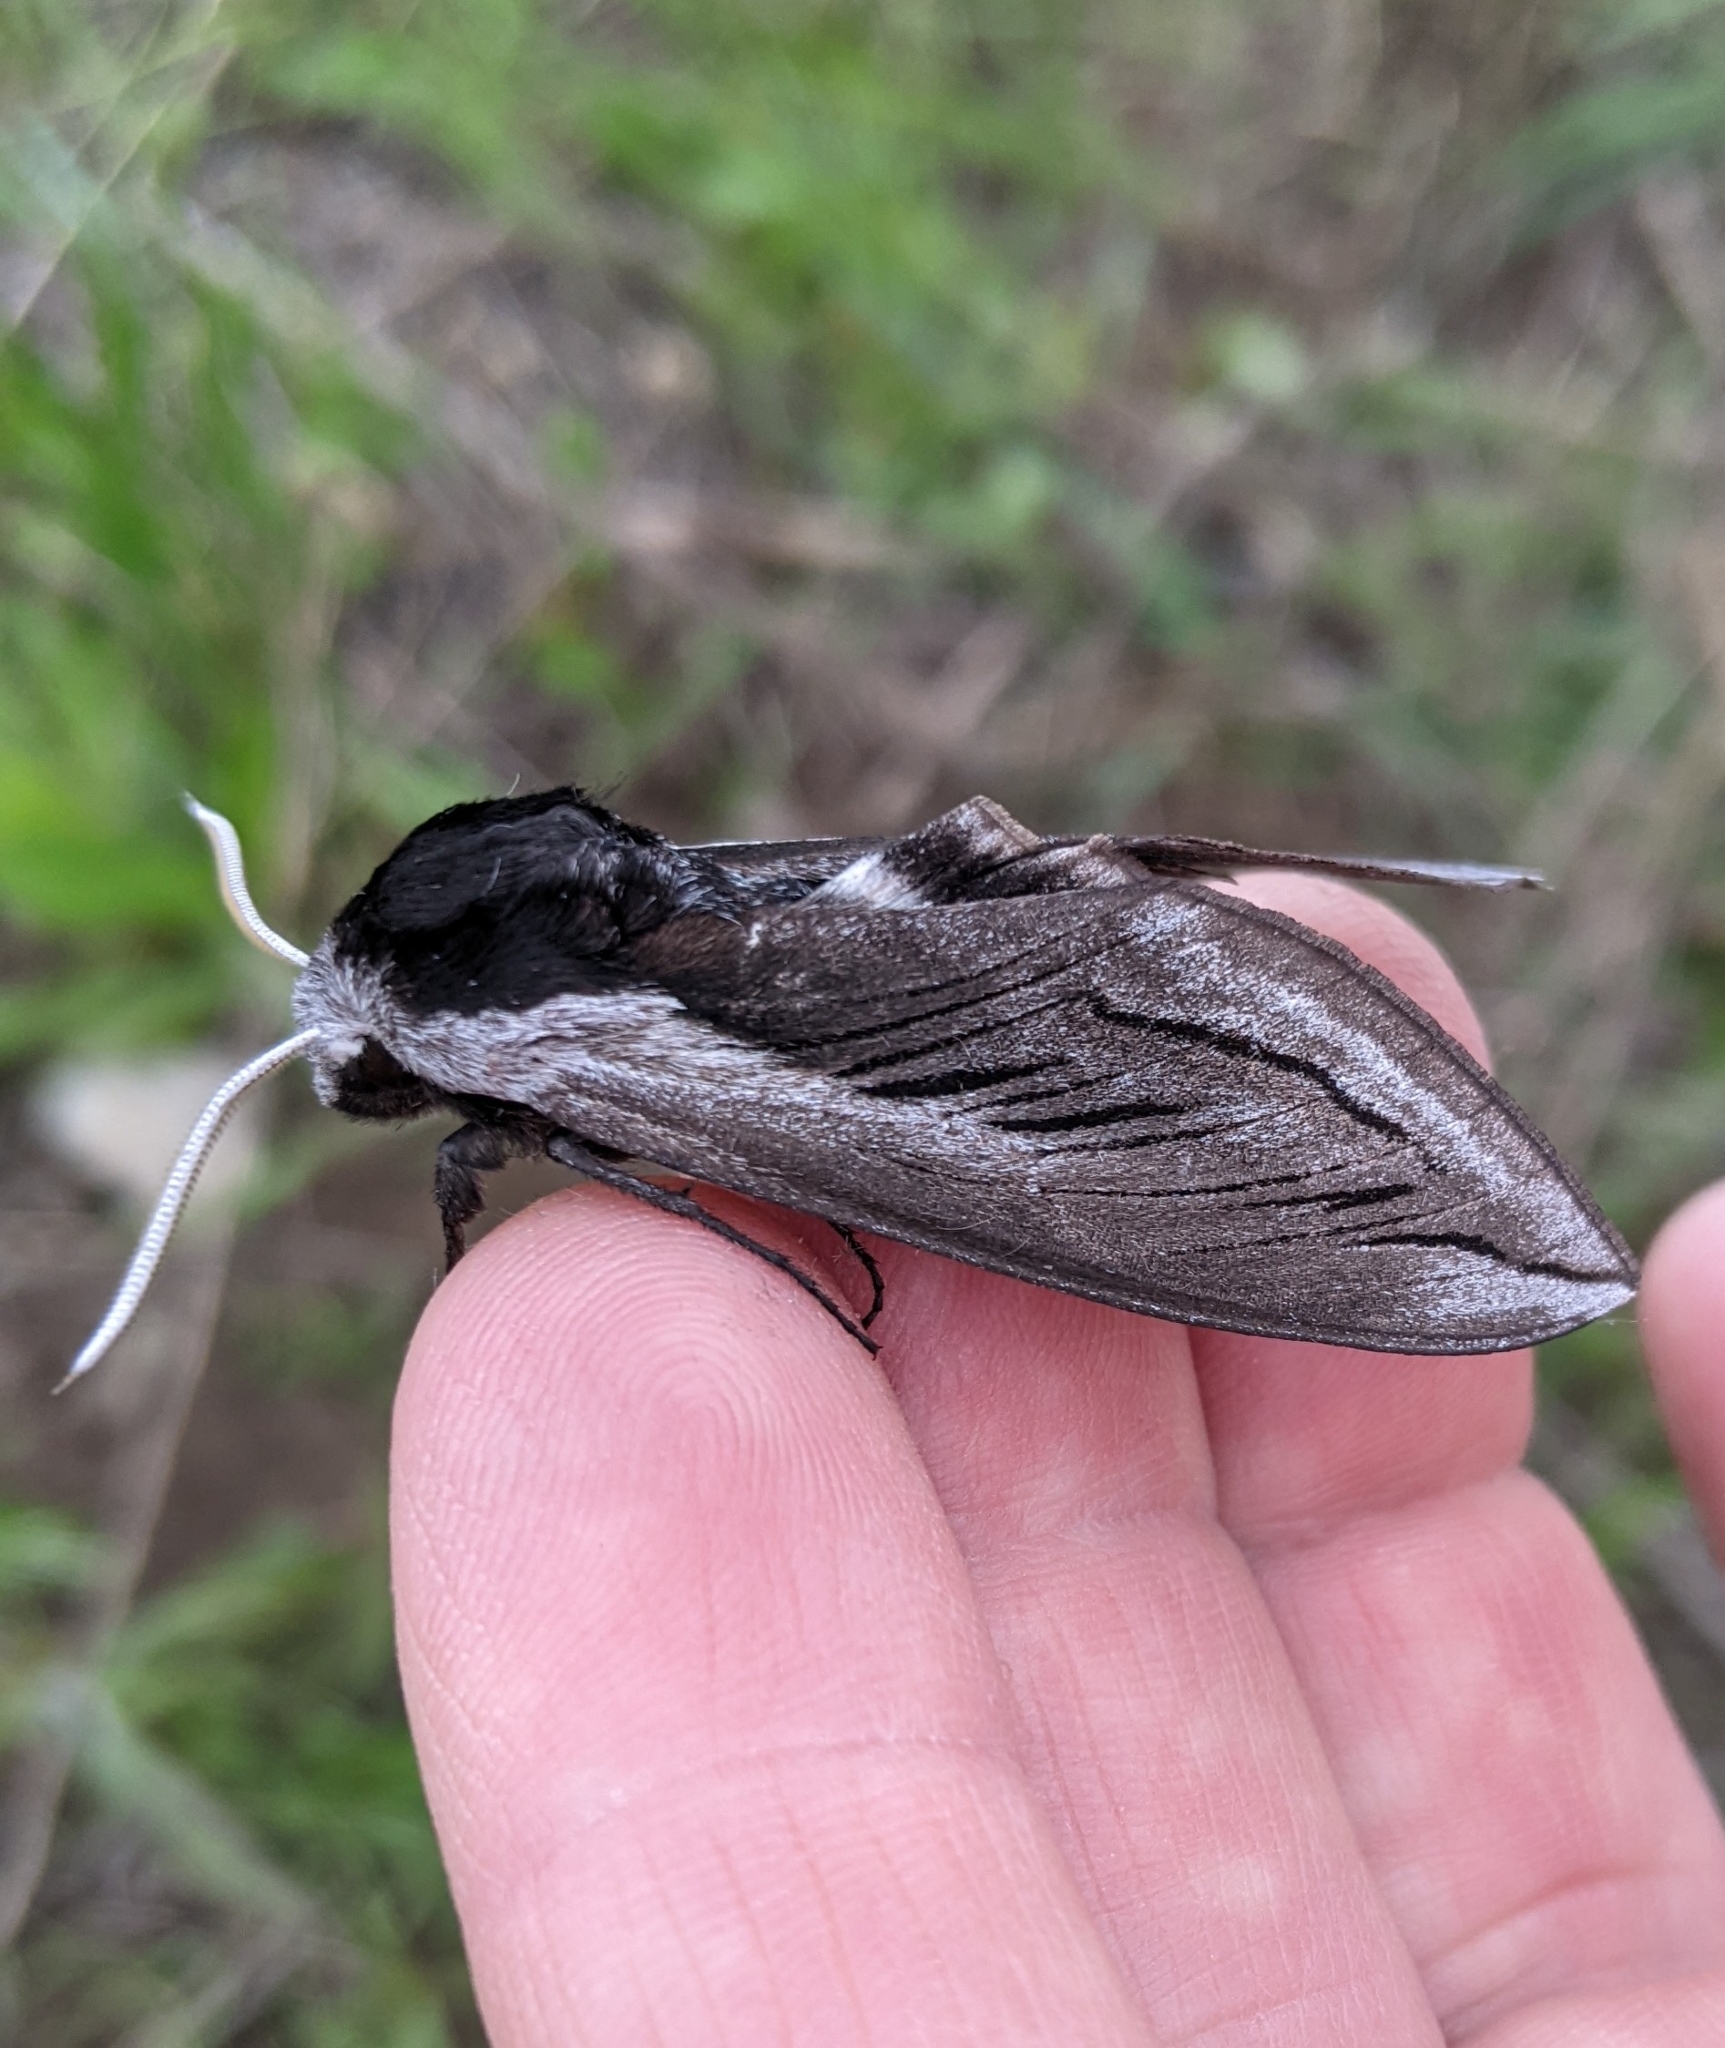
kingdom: Animalia
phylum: Arthropoda
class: Insecta
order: Lepidoptera
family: Sphingidae
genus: Sphinx
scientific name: Sphinx vashti
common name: Snowberry sphinx
